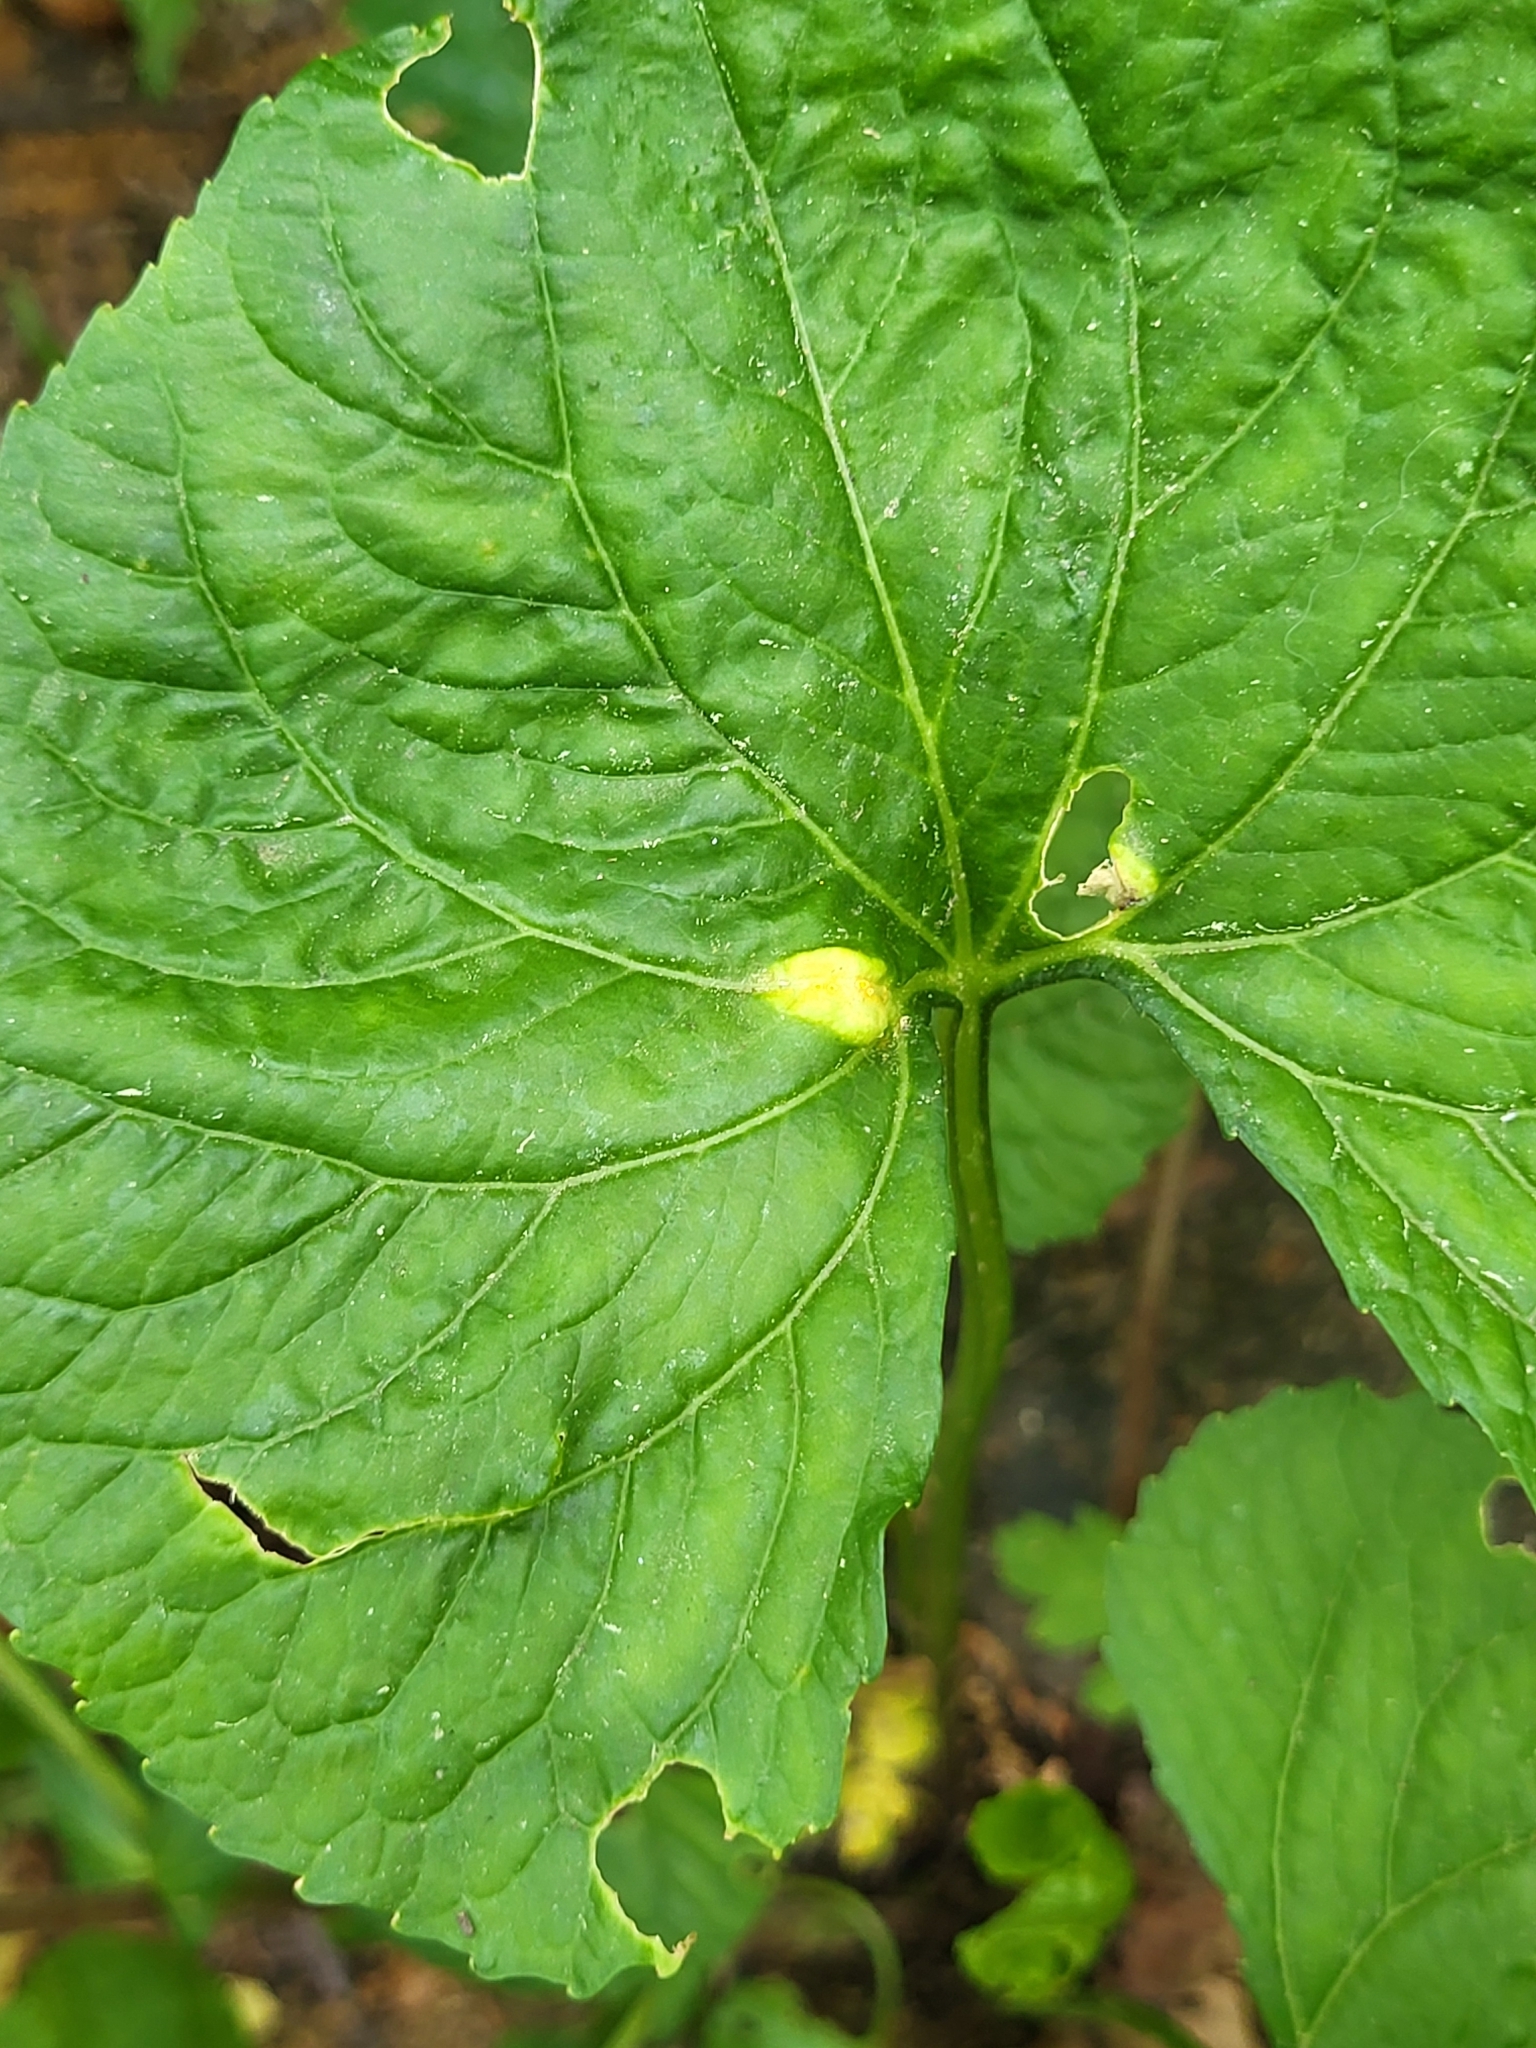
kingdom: Fungi
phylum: Basidiomycota
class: Pucciniomycetes
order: Pucciniales
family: Pucciniaceae
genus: Puccinia
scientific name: Puccinia violae
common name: Violet rust
